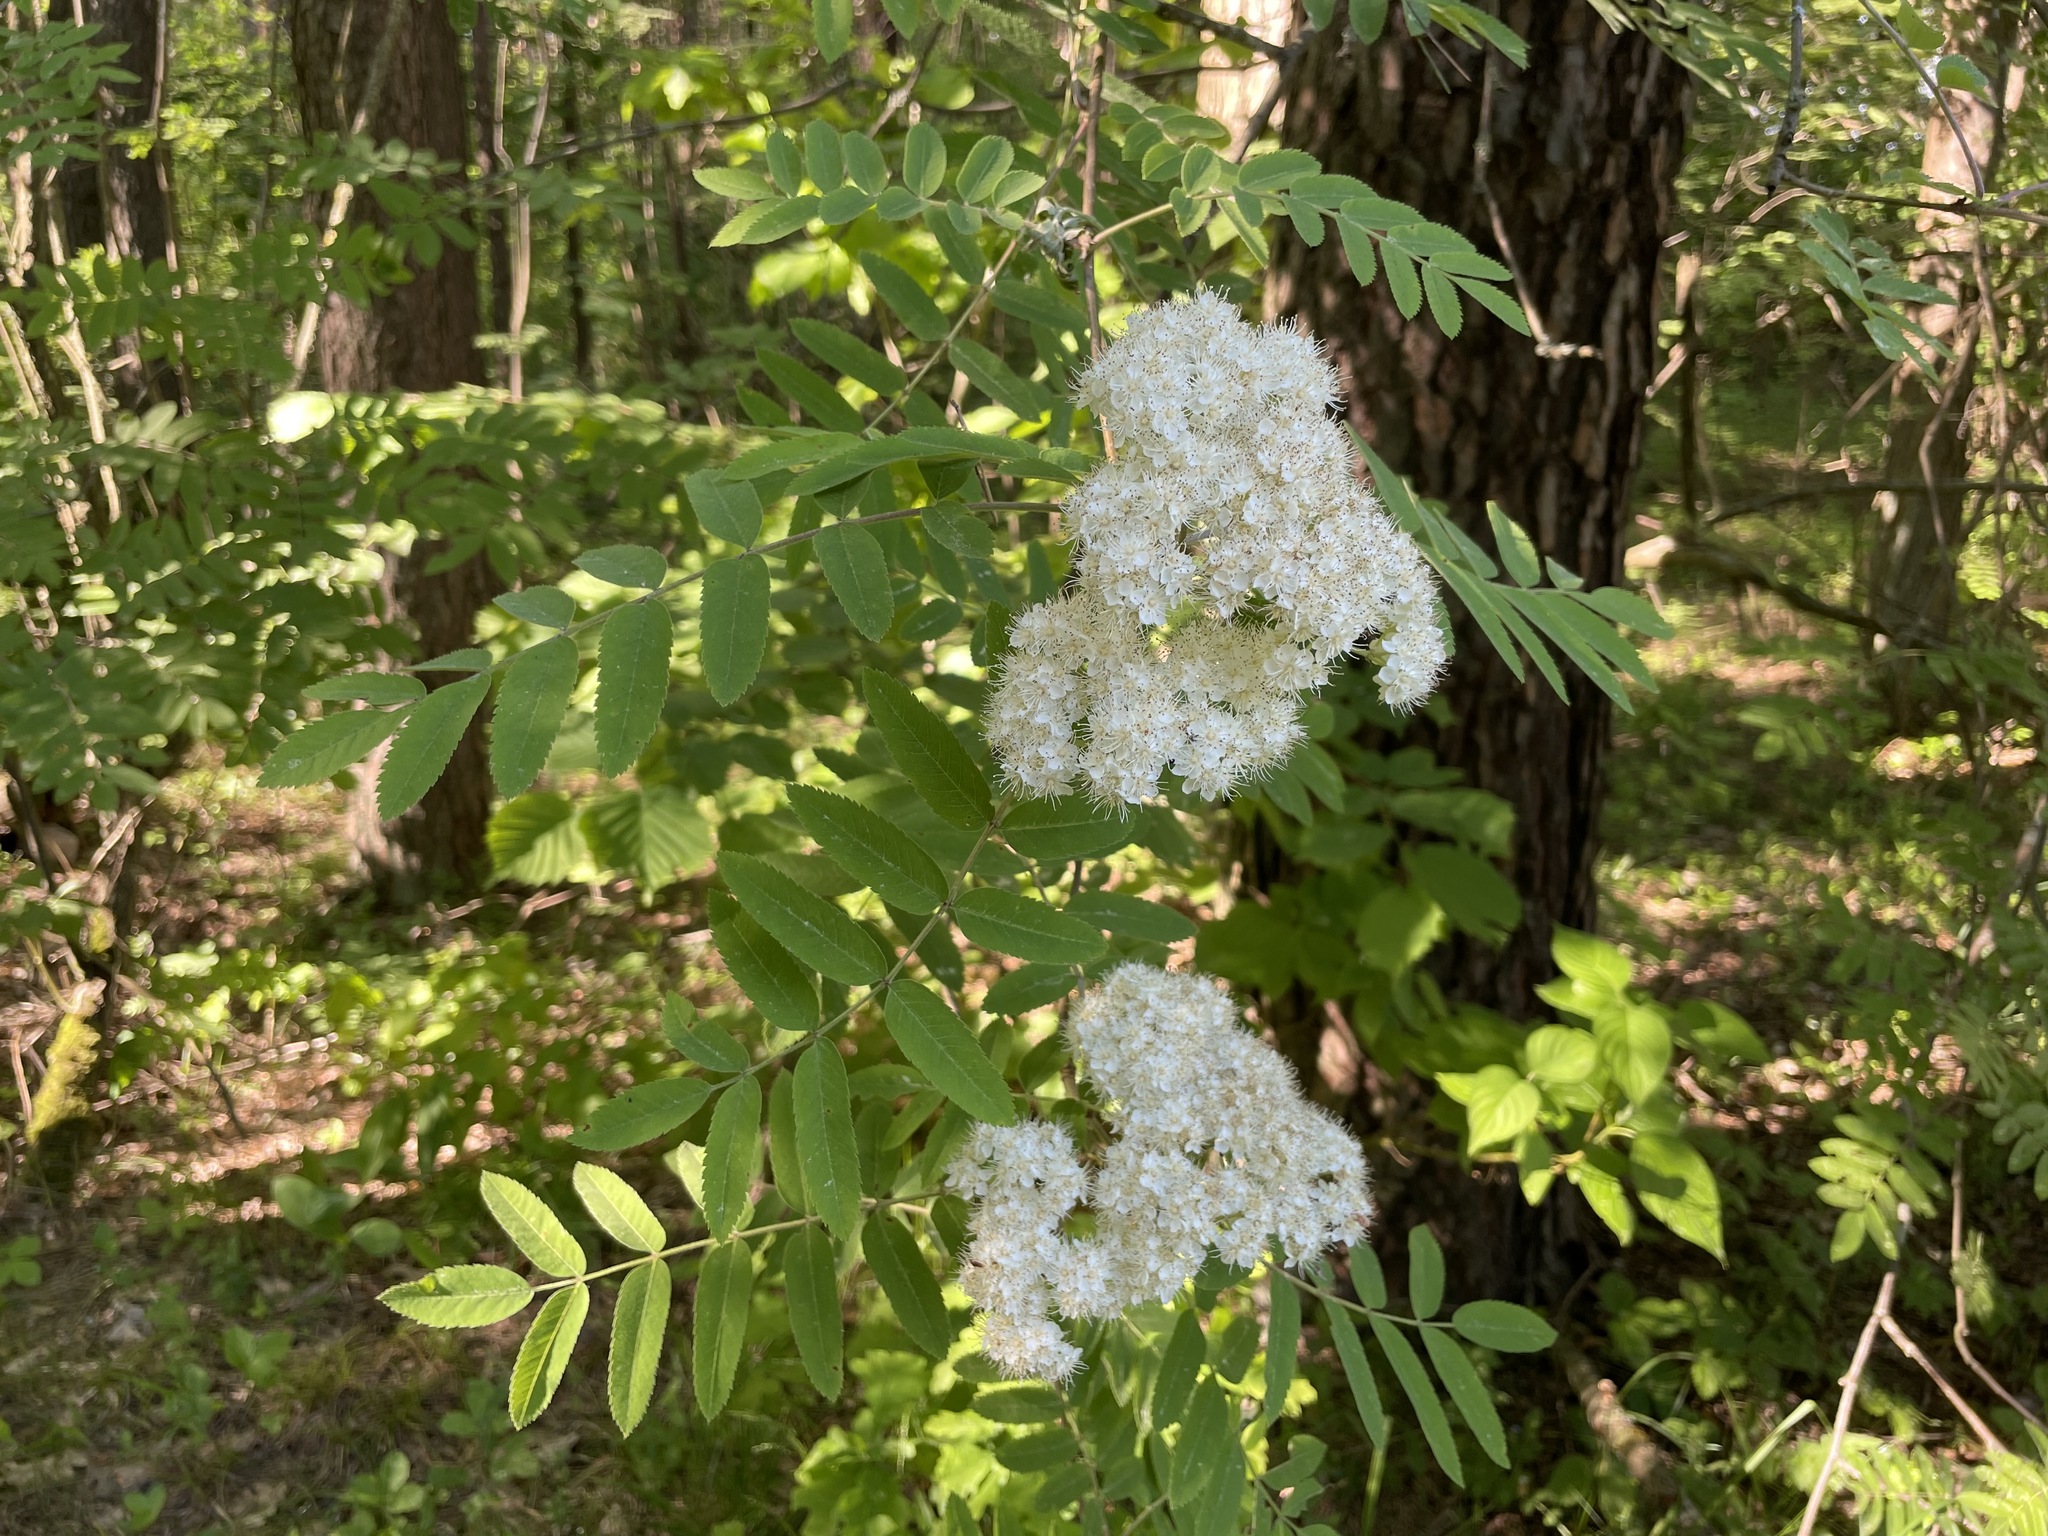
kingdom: Plantae
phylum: Tracheophyta
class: Magnoliopsida
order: Rosales
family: Rosaceae
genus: Sorbus
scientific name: Sorbus aucuparia
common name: Rowan
